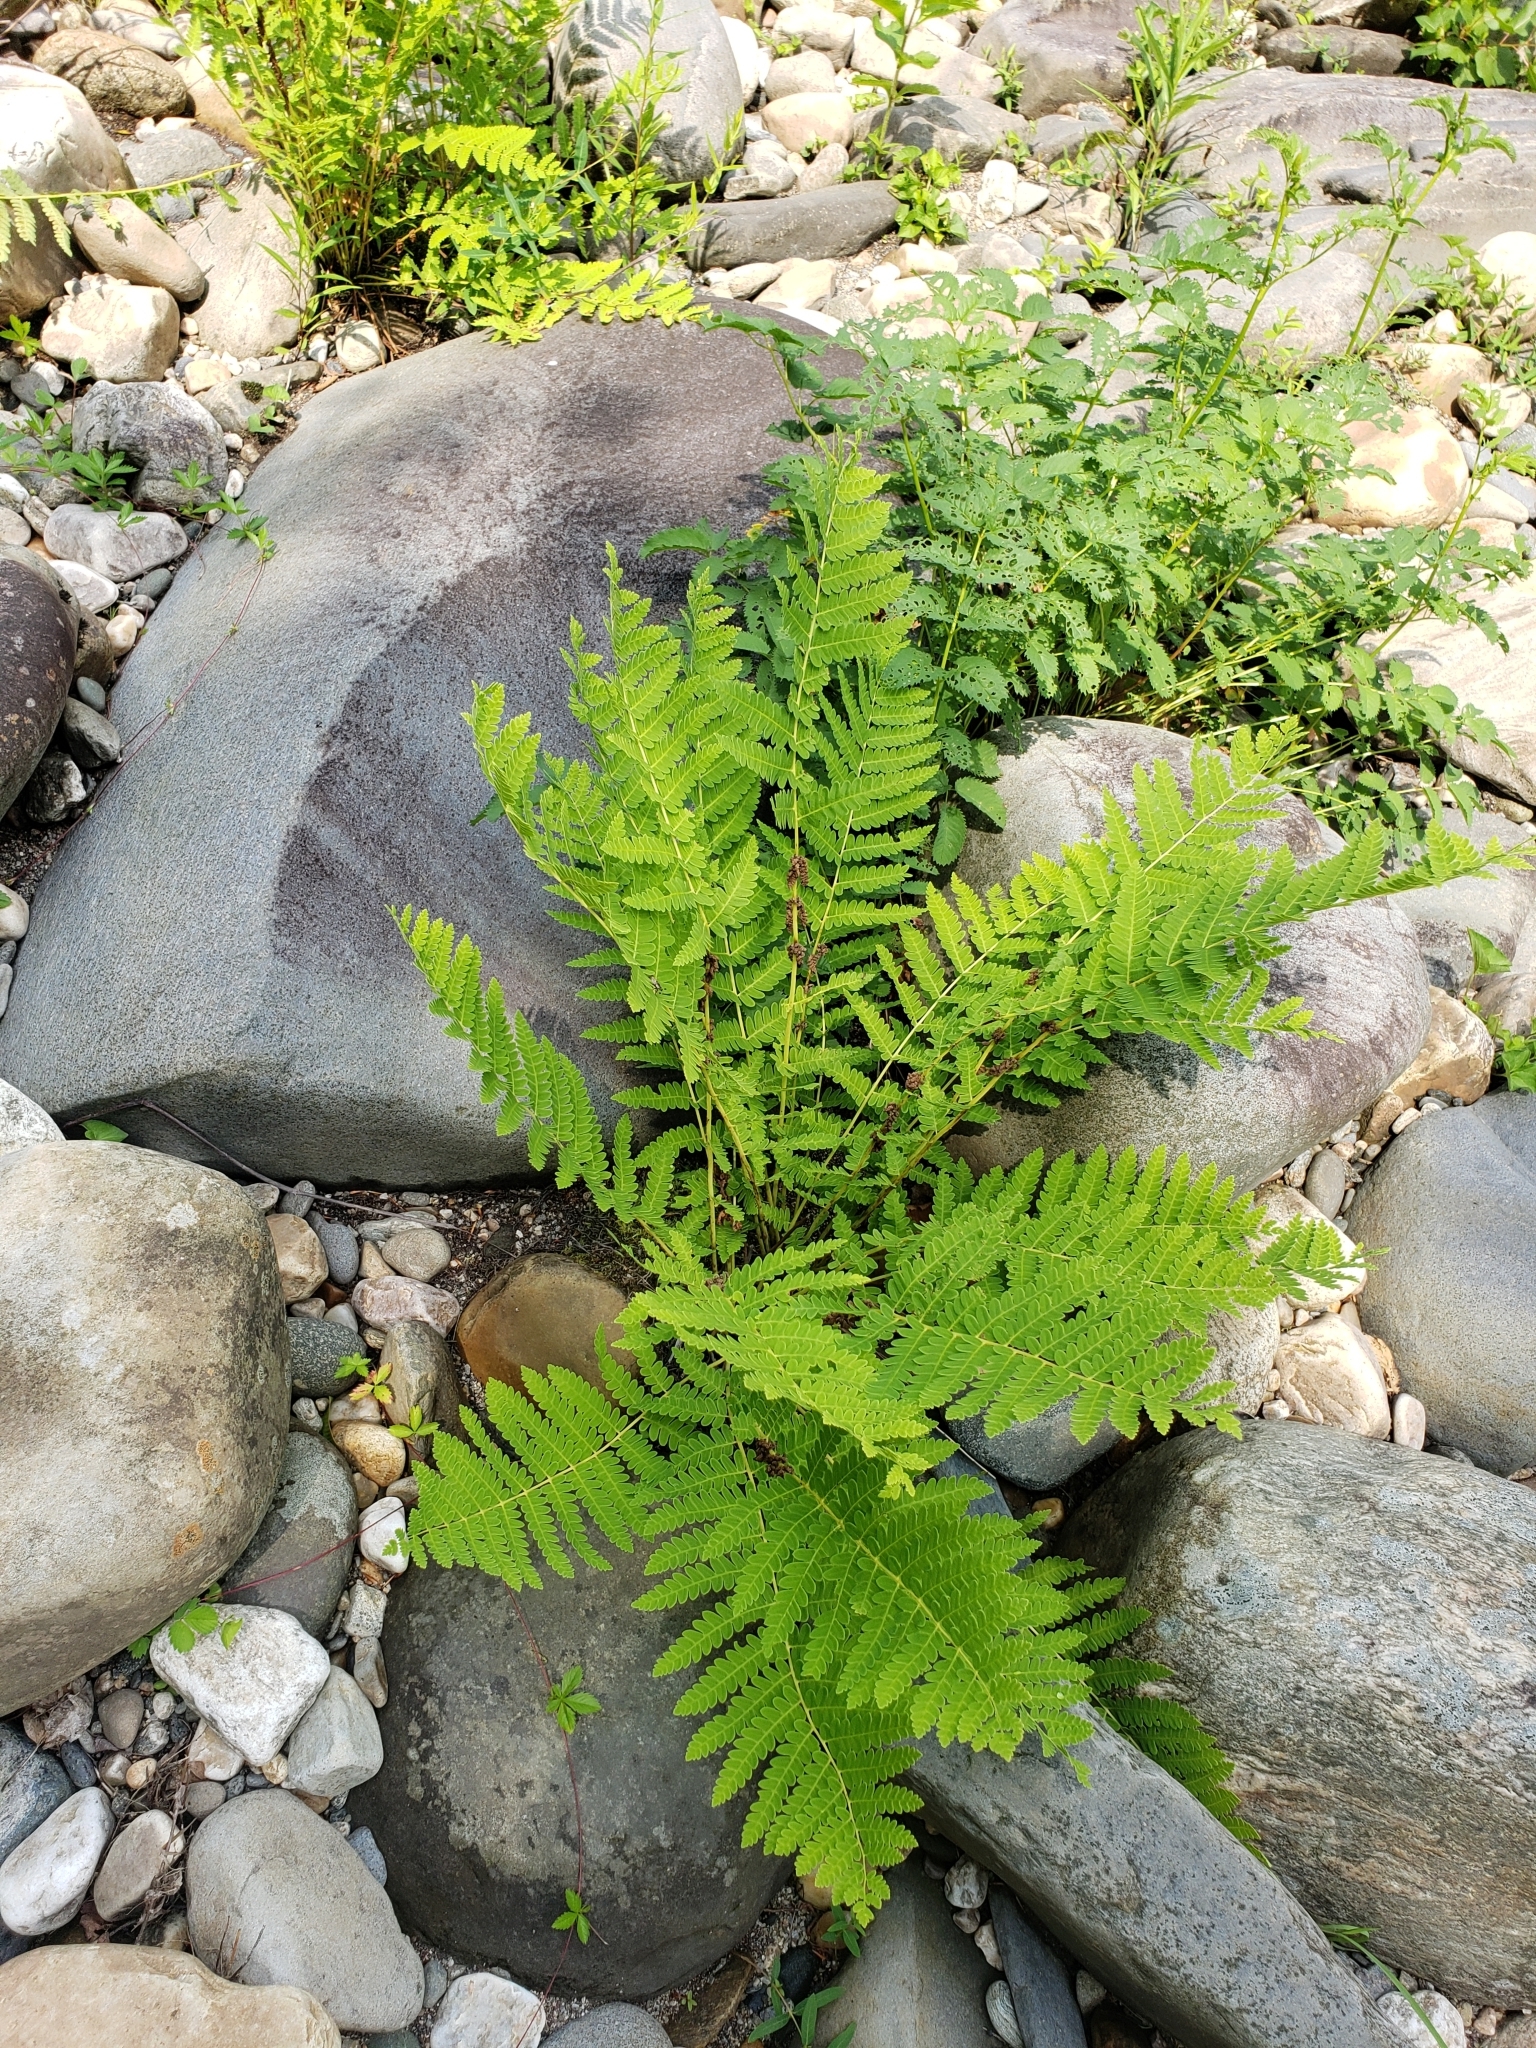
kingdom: Plantae
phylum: Tracheophyta
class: Polypodiopsida
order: Osmundales
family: Osmundaceae
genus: Claytosmunda
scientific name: Claytosmunda claytoniana
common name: Clayton's fern
